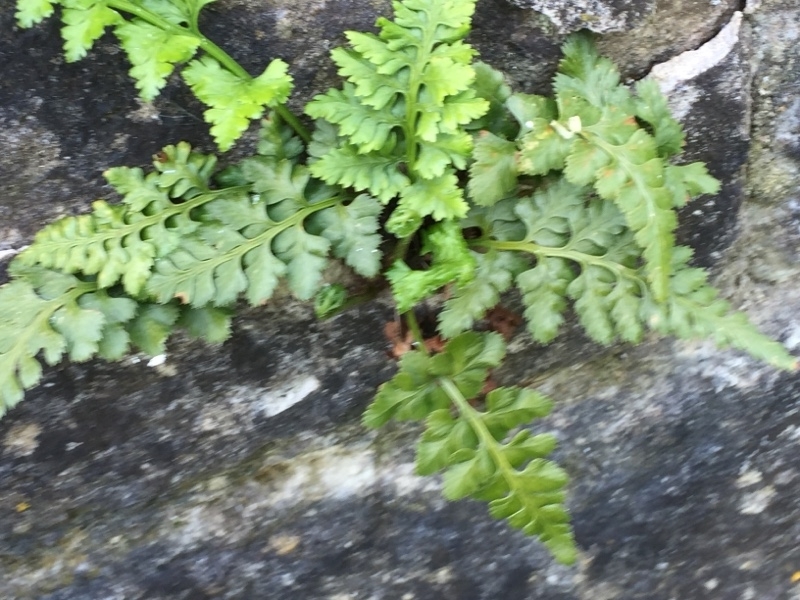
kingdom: Plantae
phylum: Tracheophyta
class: Polypodiopsida
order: Polypodiales
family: Aspleniaceae
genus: Asplenium
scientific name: Asplenium adiantum-nigrum
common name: Black spleenwort
